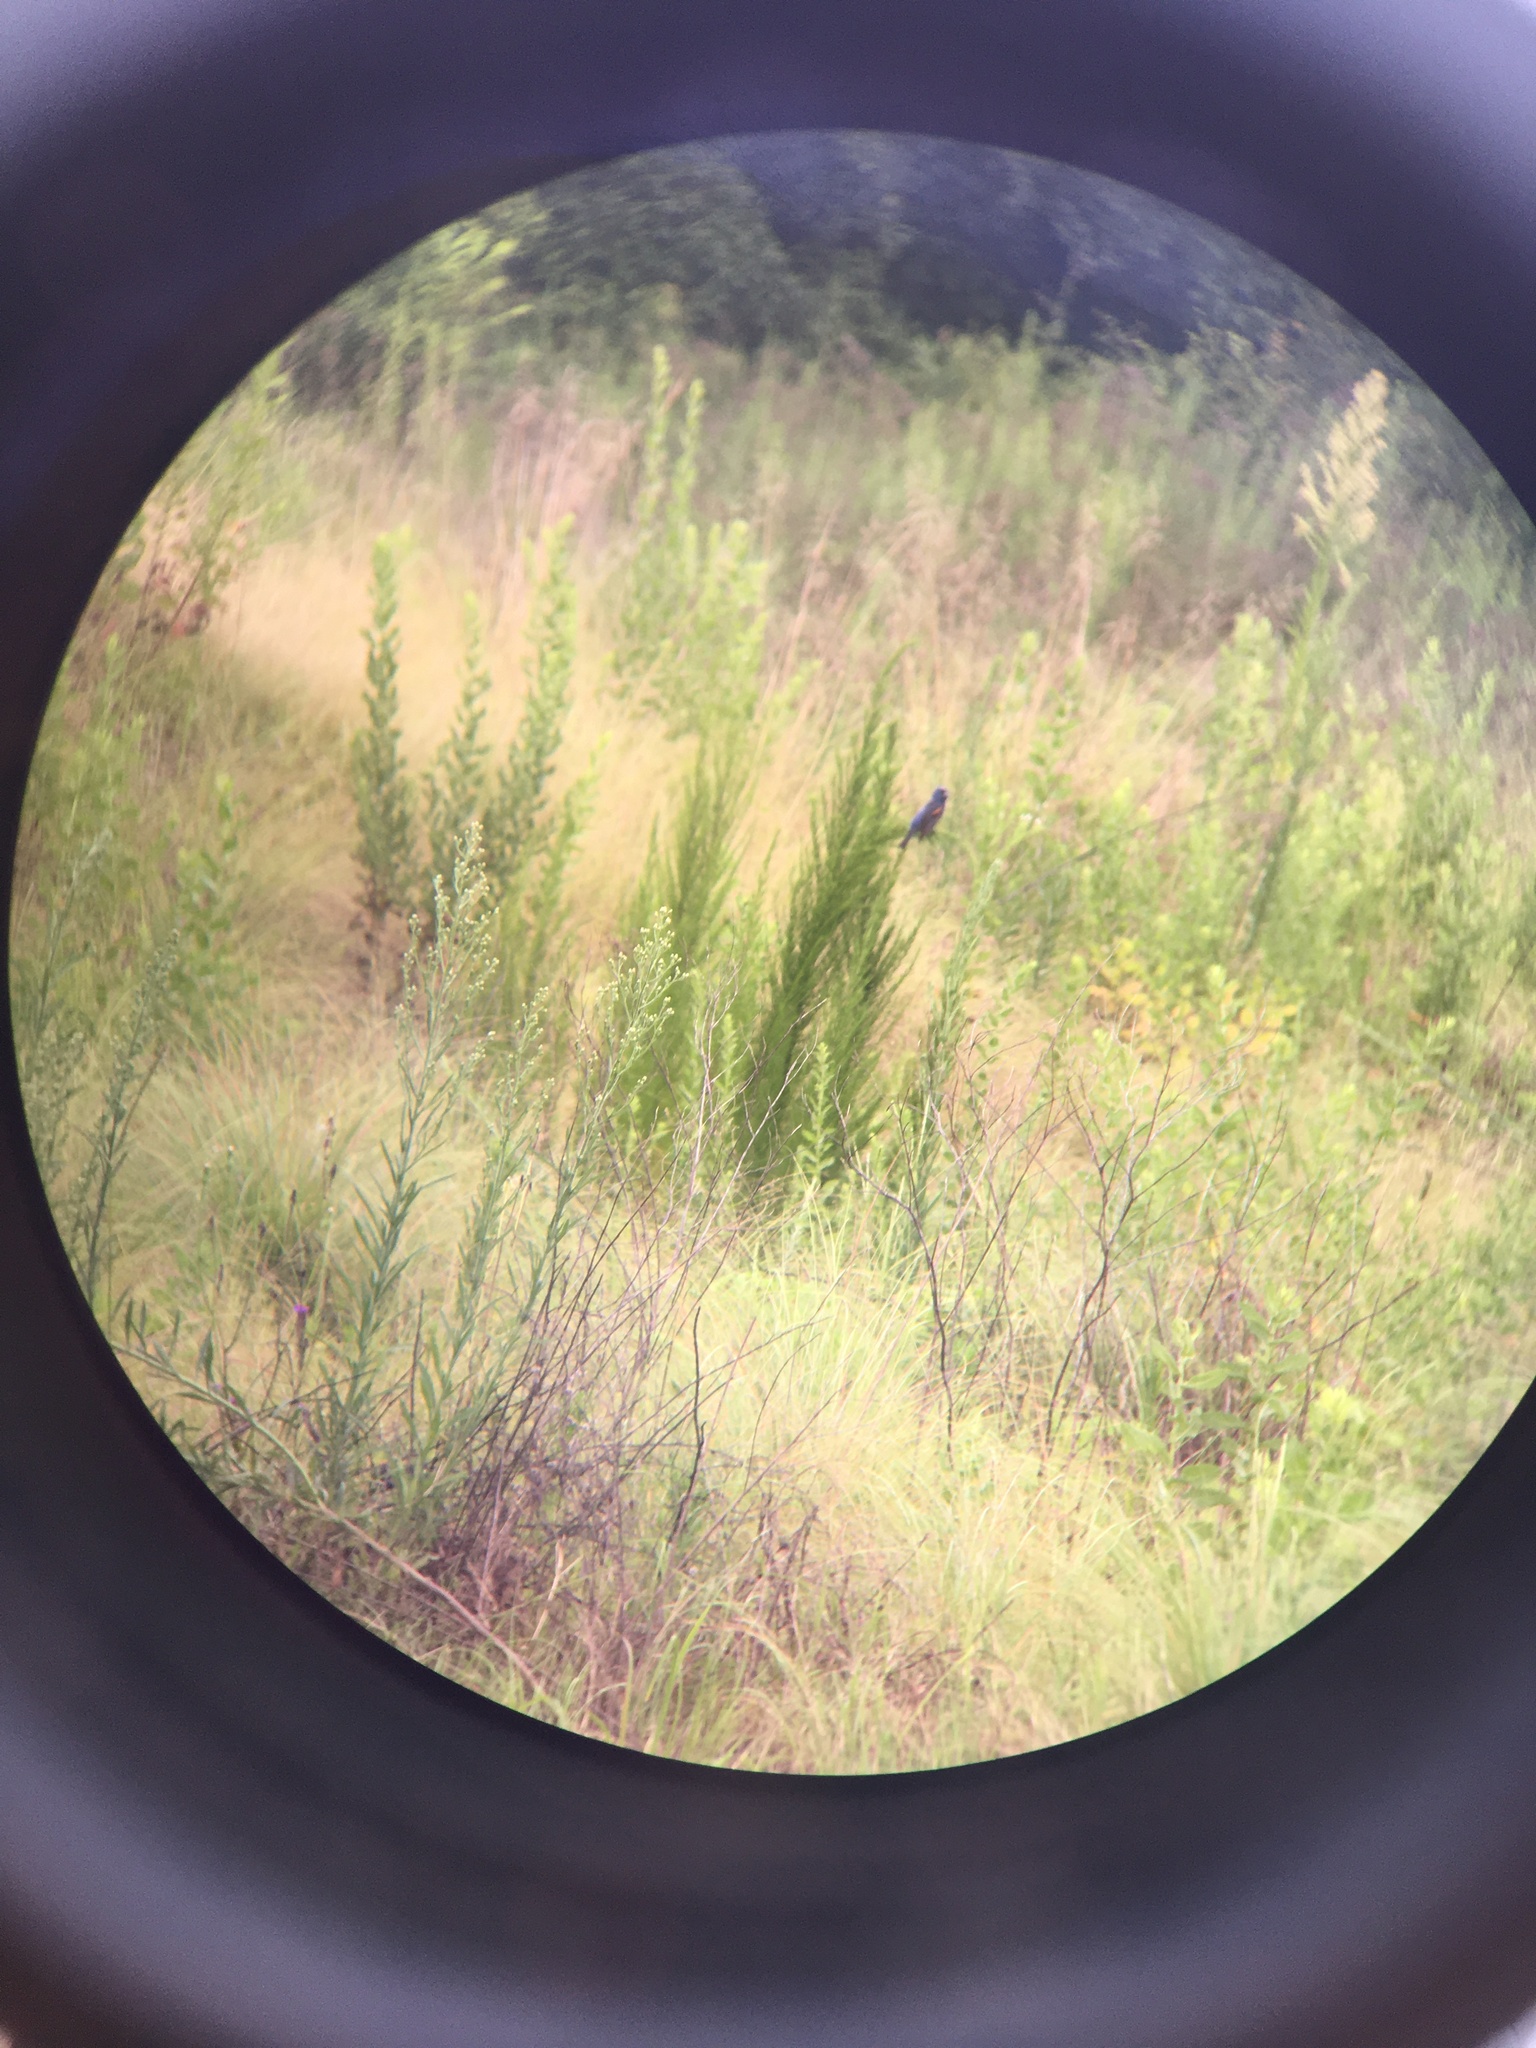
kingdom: Animalia
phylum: Chordata
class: Aves
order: Passeriformes
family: Cardinalidae
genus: Passerina
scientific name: Passerina caerulea
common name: Blue grosbeak
